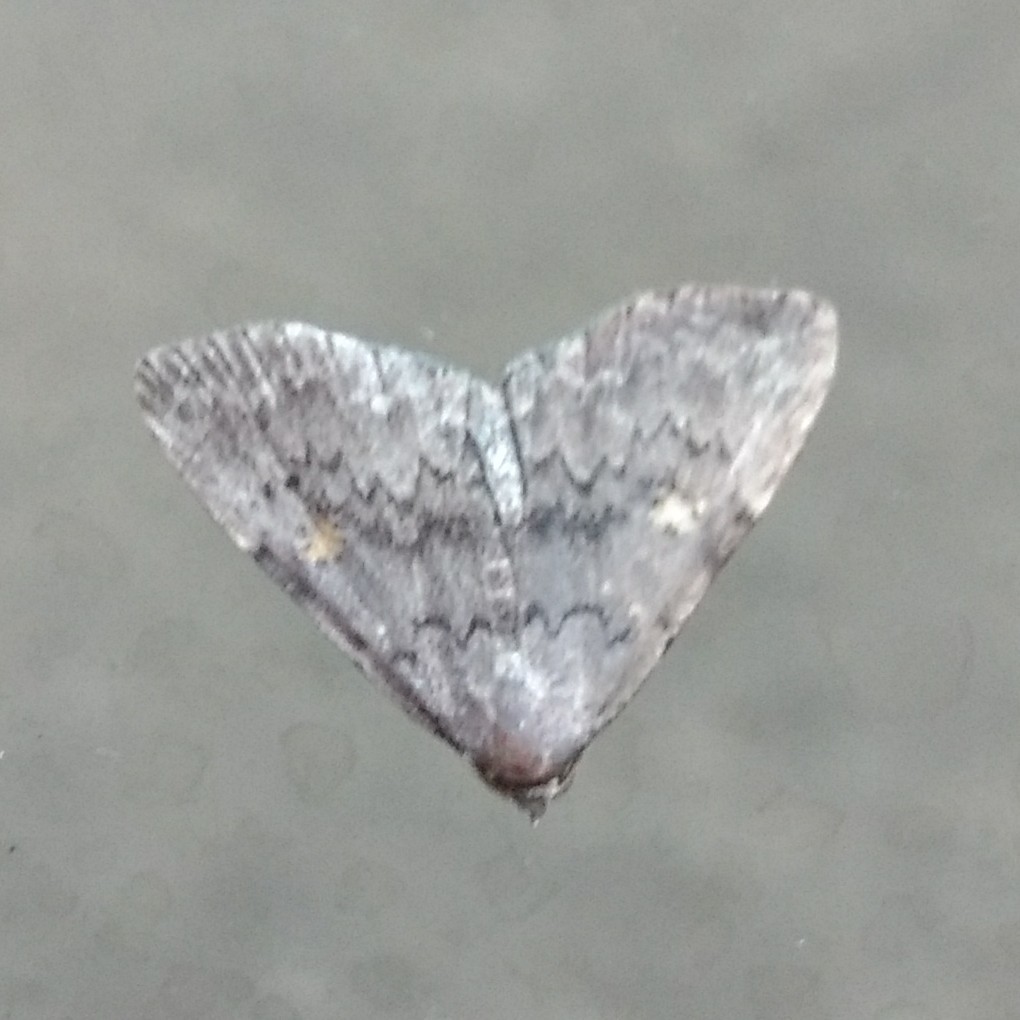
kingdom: Animalia
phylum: Arthropoda
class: Insecta
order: Lepidoptera
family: Erebidae
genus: Idia
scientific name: Idia aemula
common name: Common idia moth
